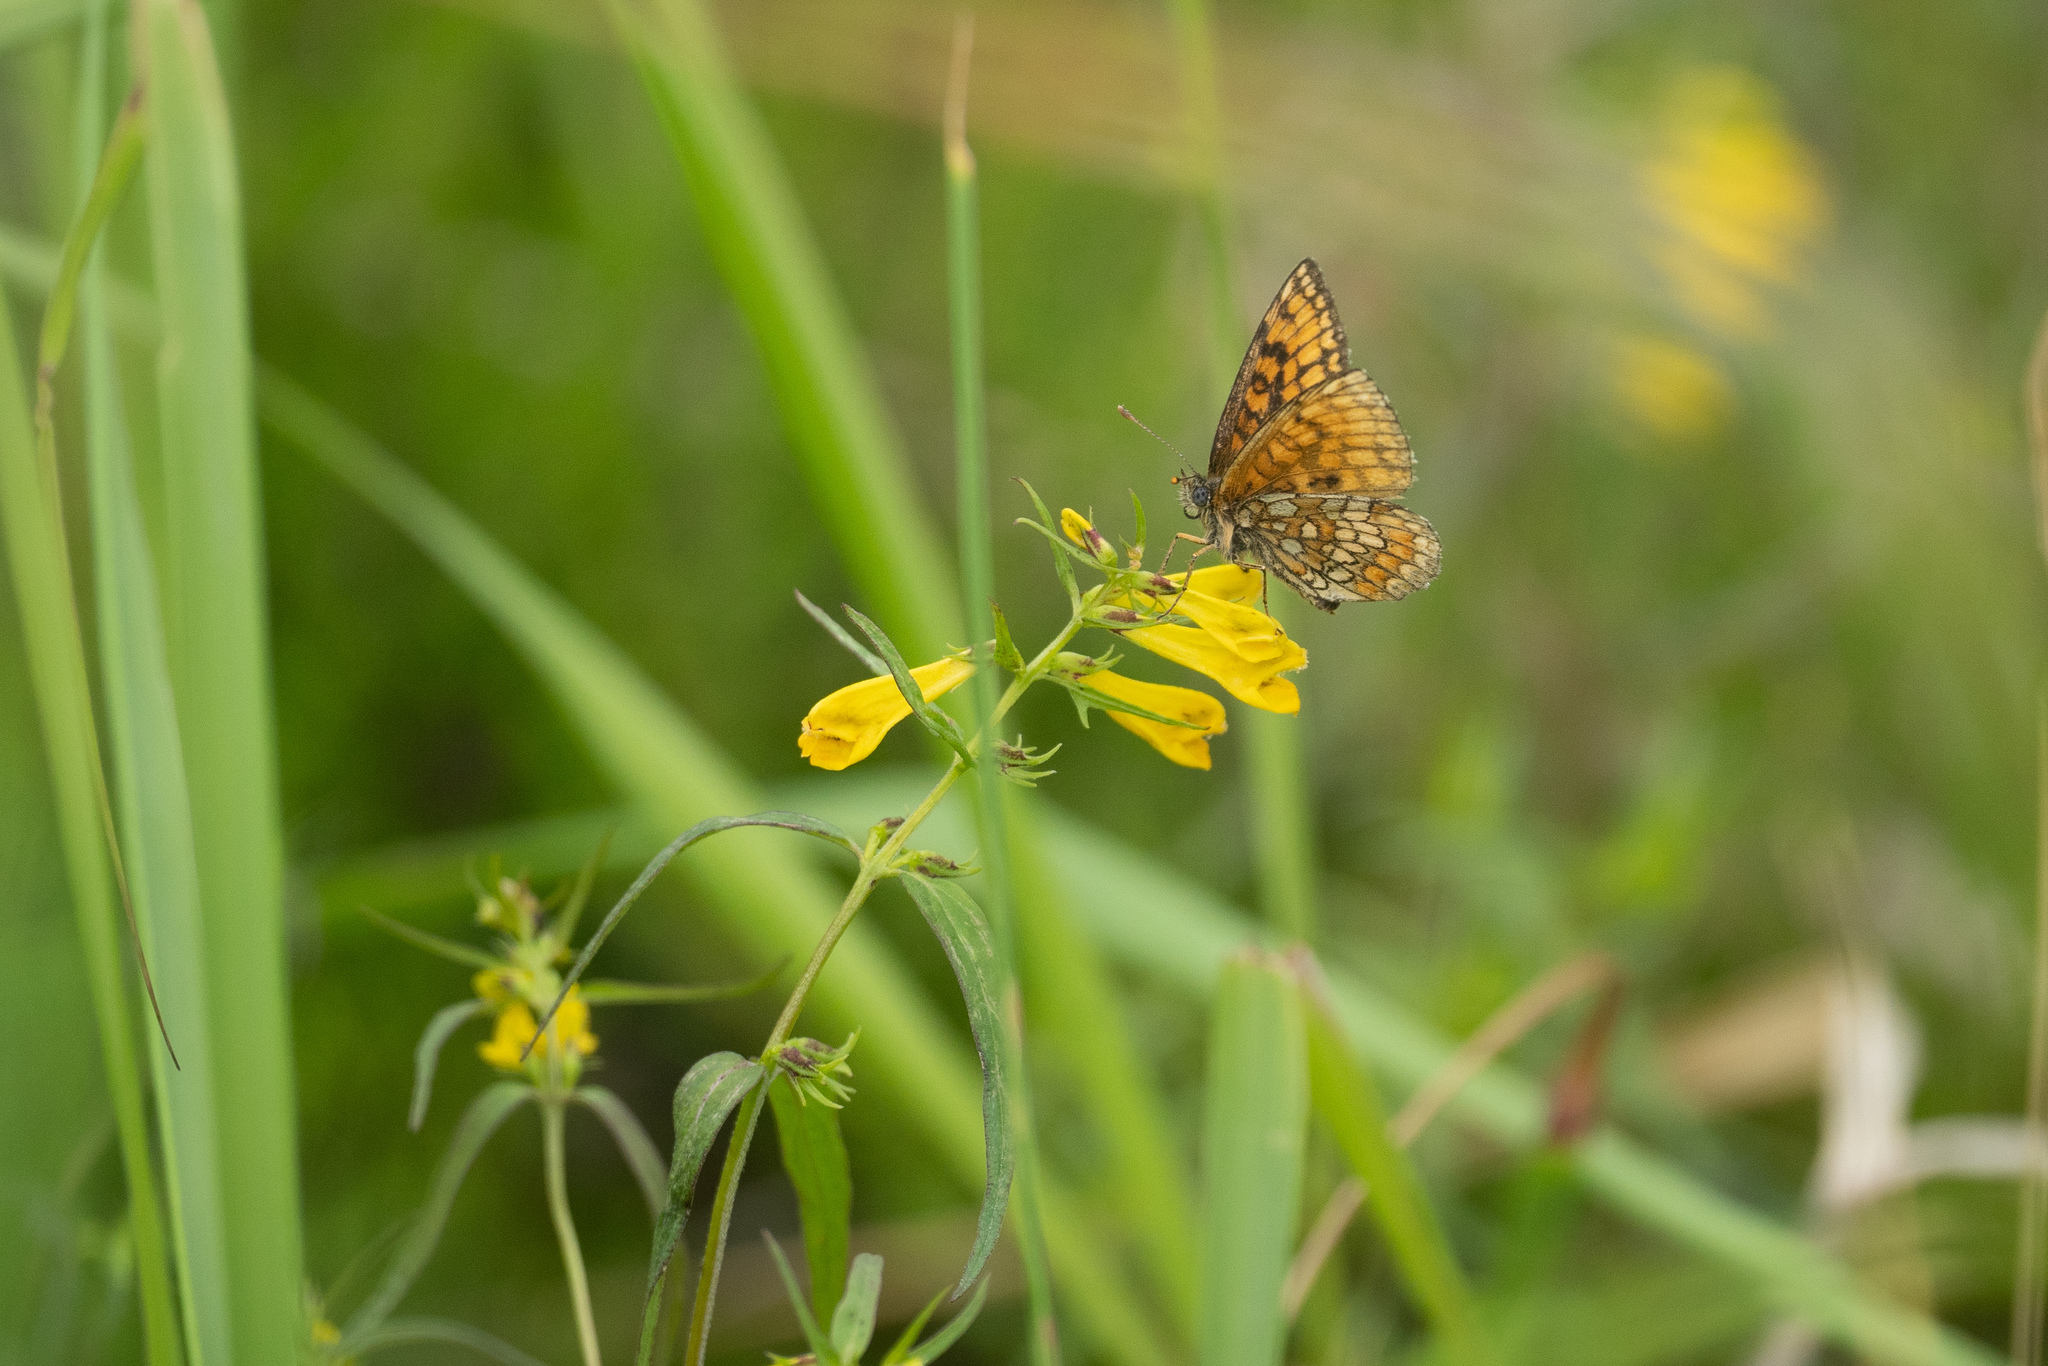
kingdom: Animalia
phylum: Arthropoda
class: Insecta
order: Lepidoptera
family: Nymphalidae
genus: Melitaea
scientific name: Melitaea athalia
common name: Heath fritillary
